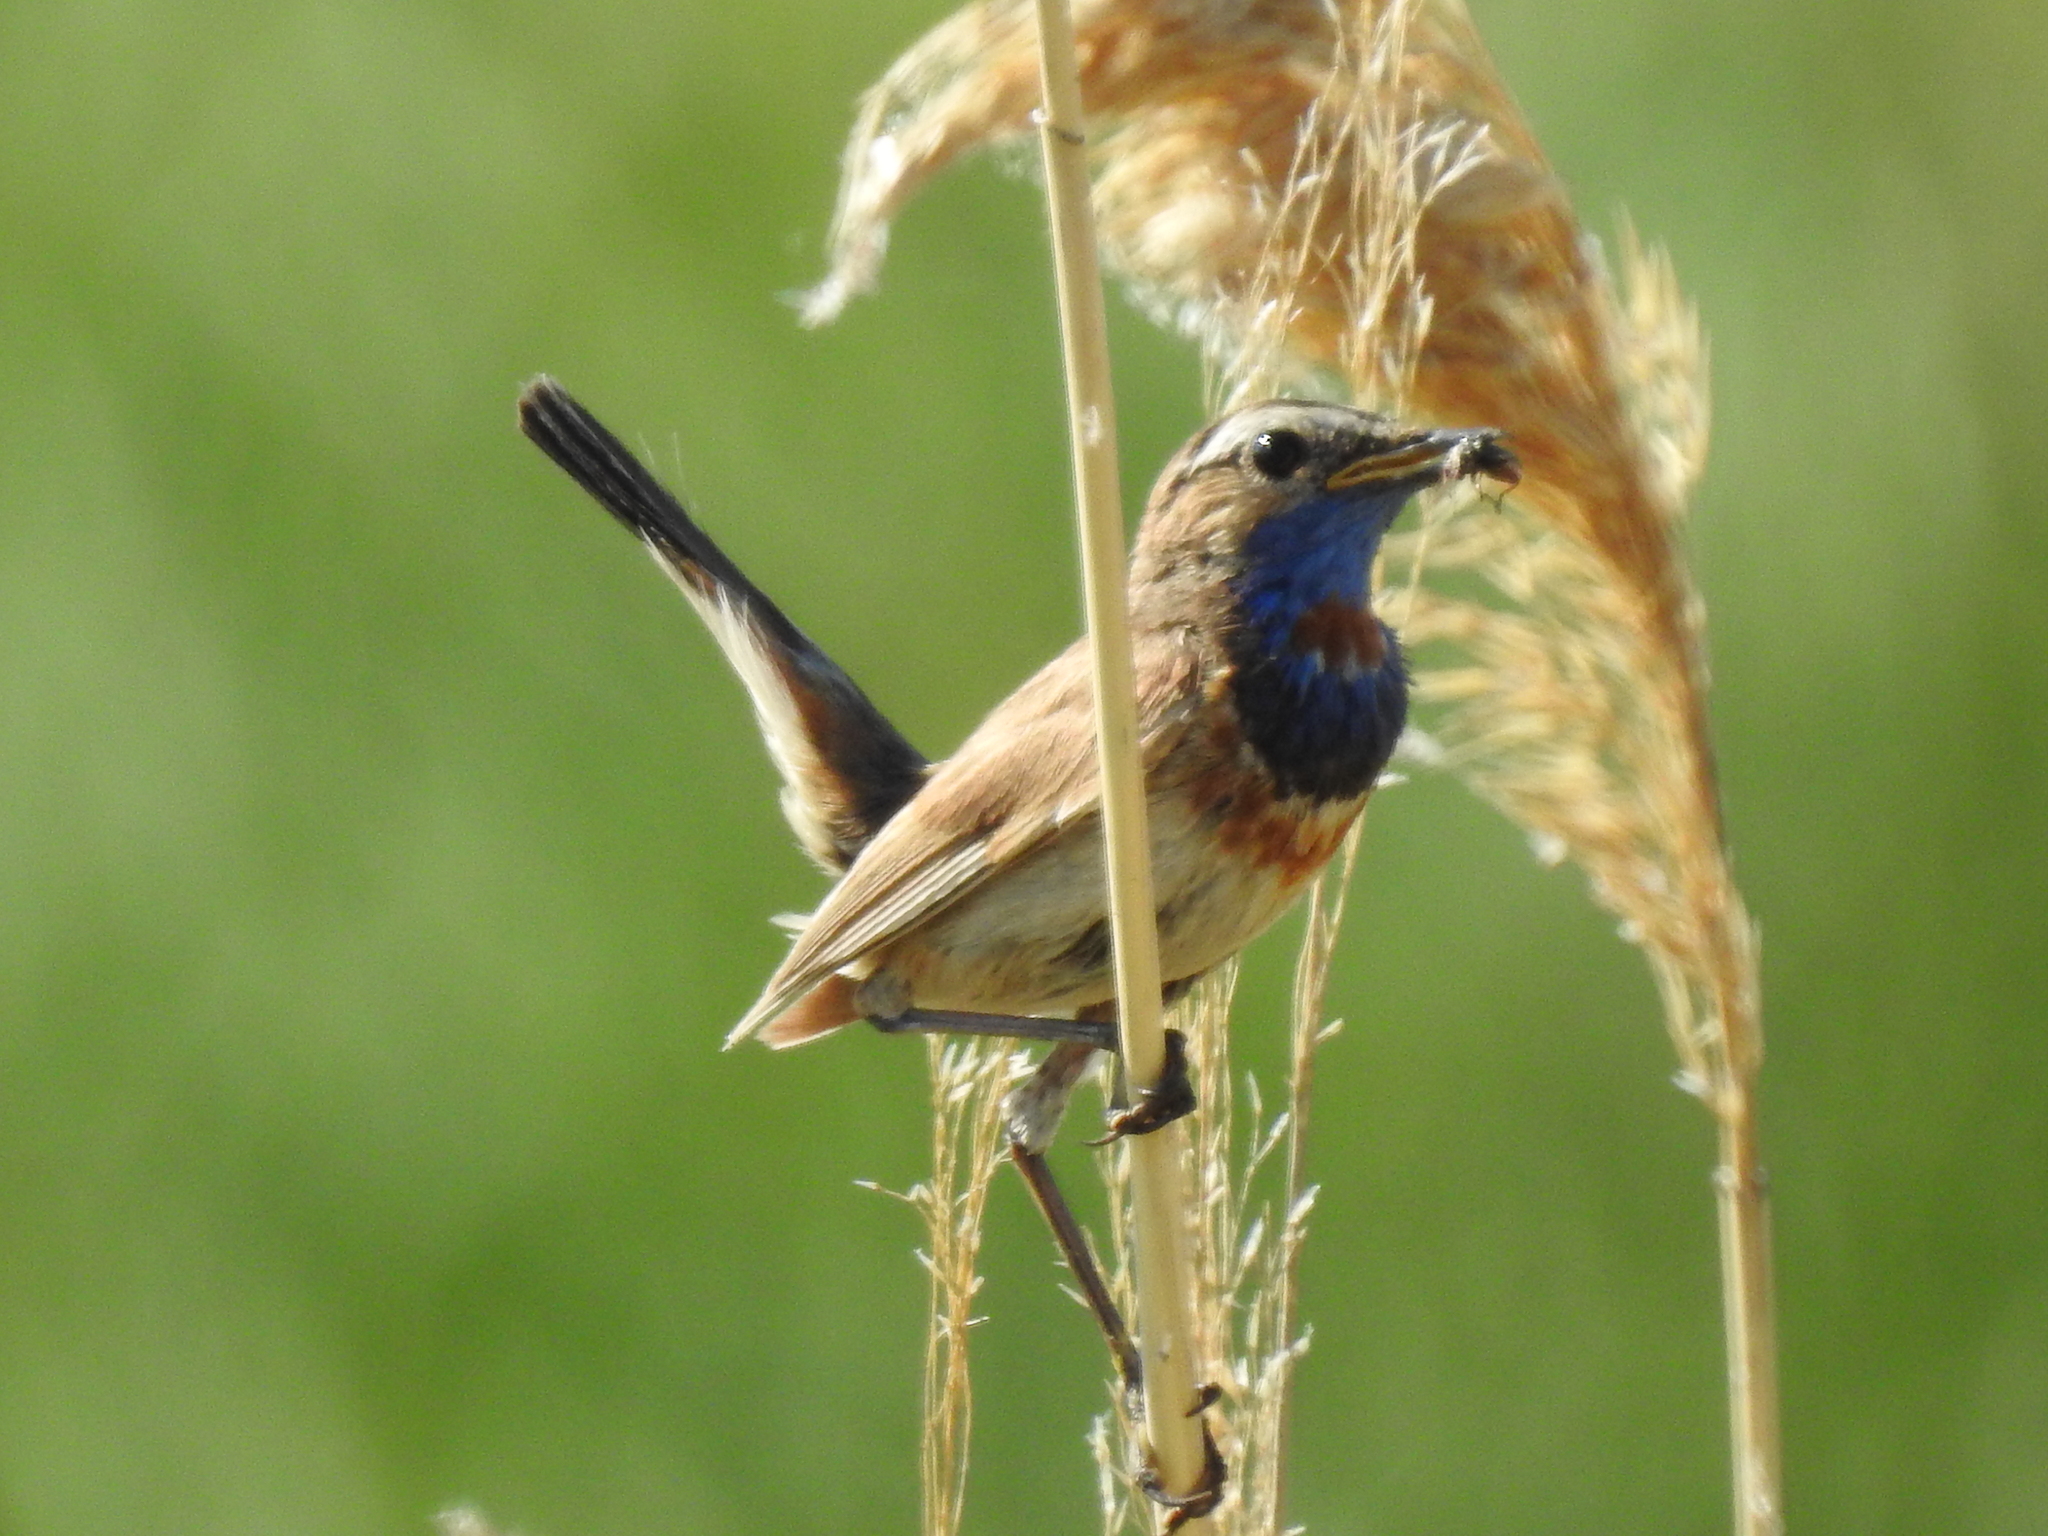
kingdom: Animalia
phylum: Chordata
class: Aves
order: Passeriformes
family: Muscicapidae
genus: Luscinia
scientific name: Luscinia svecica
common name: Bluethroat
